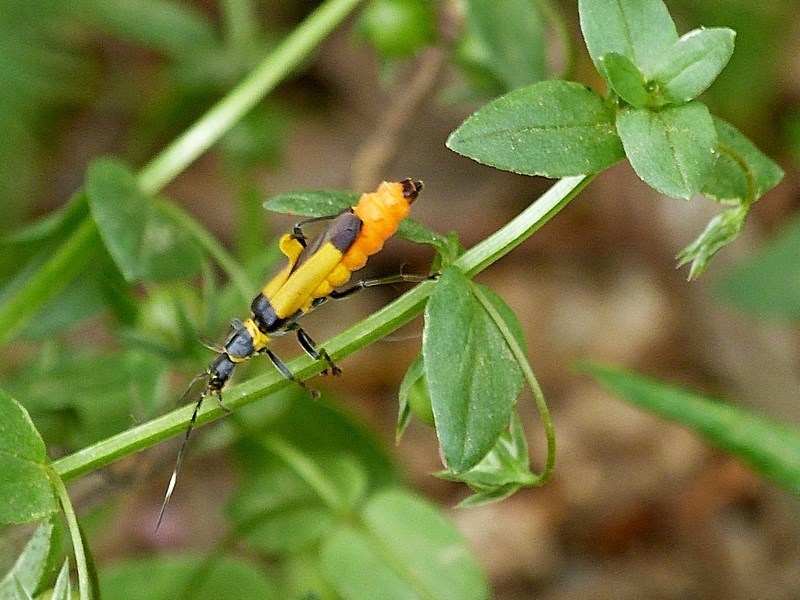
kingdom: Animalia
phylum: Arthropoda
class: Insecta
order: Coleoptera
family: Cantharidae
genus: Chauliognathus
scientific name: Chauliognathus
